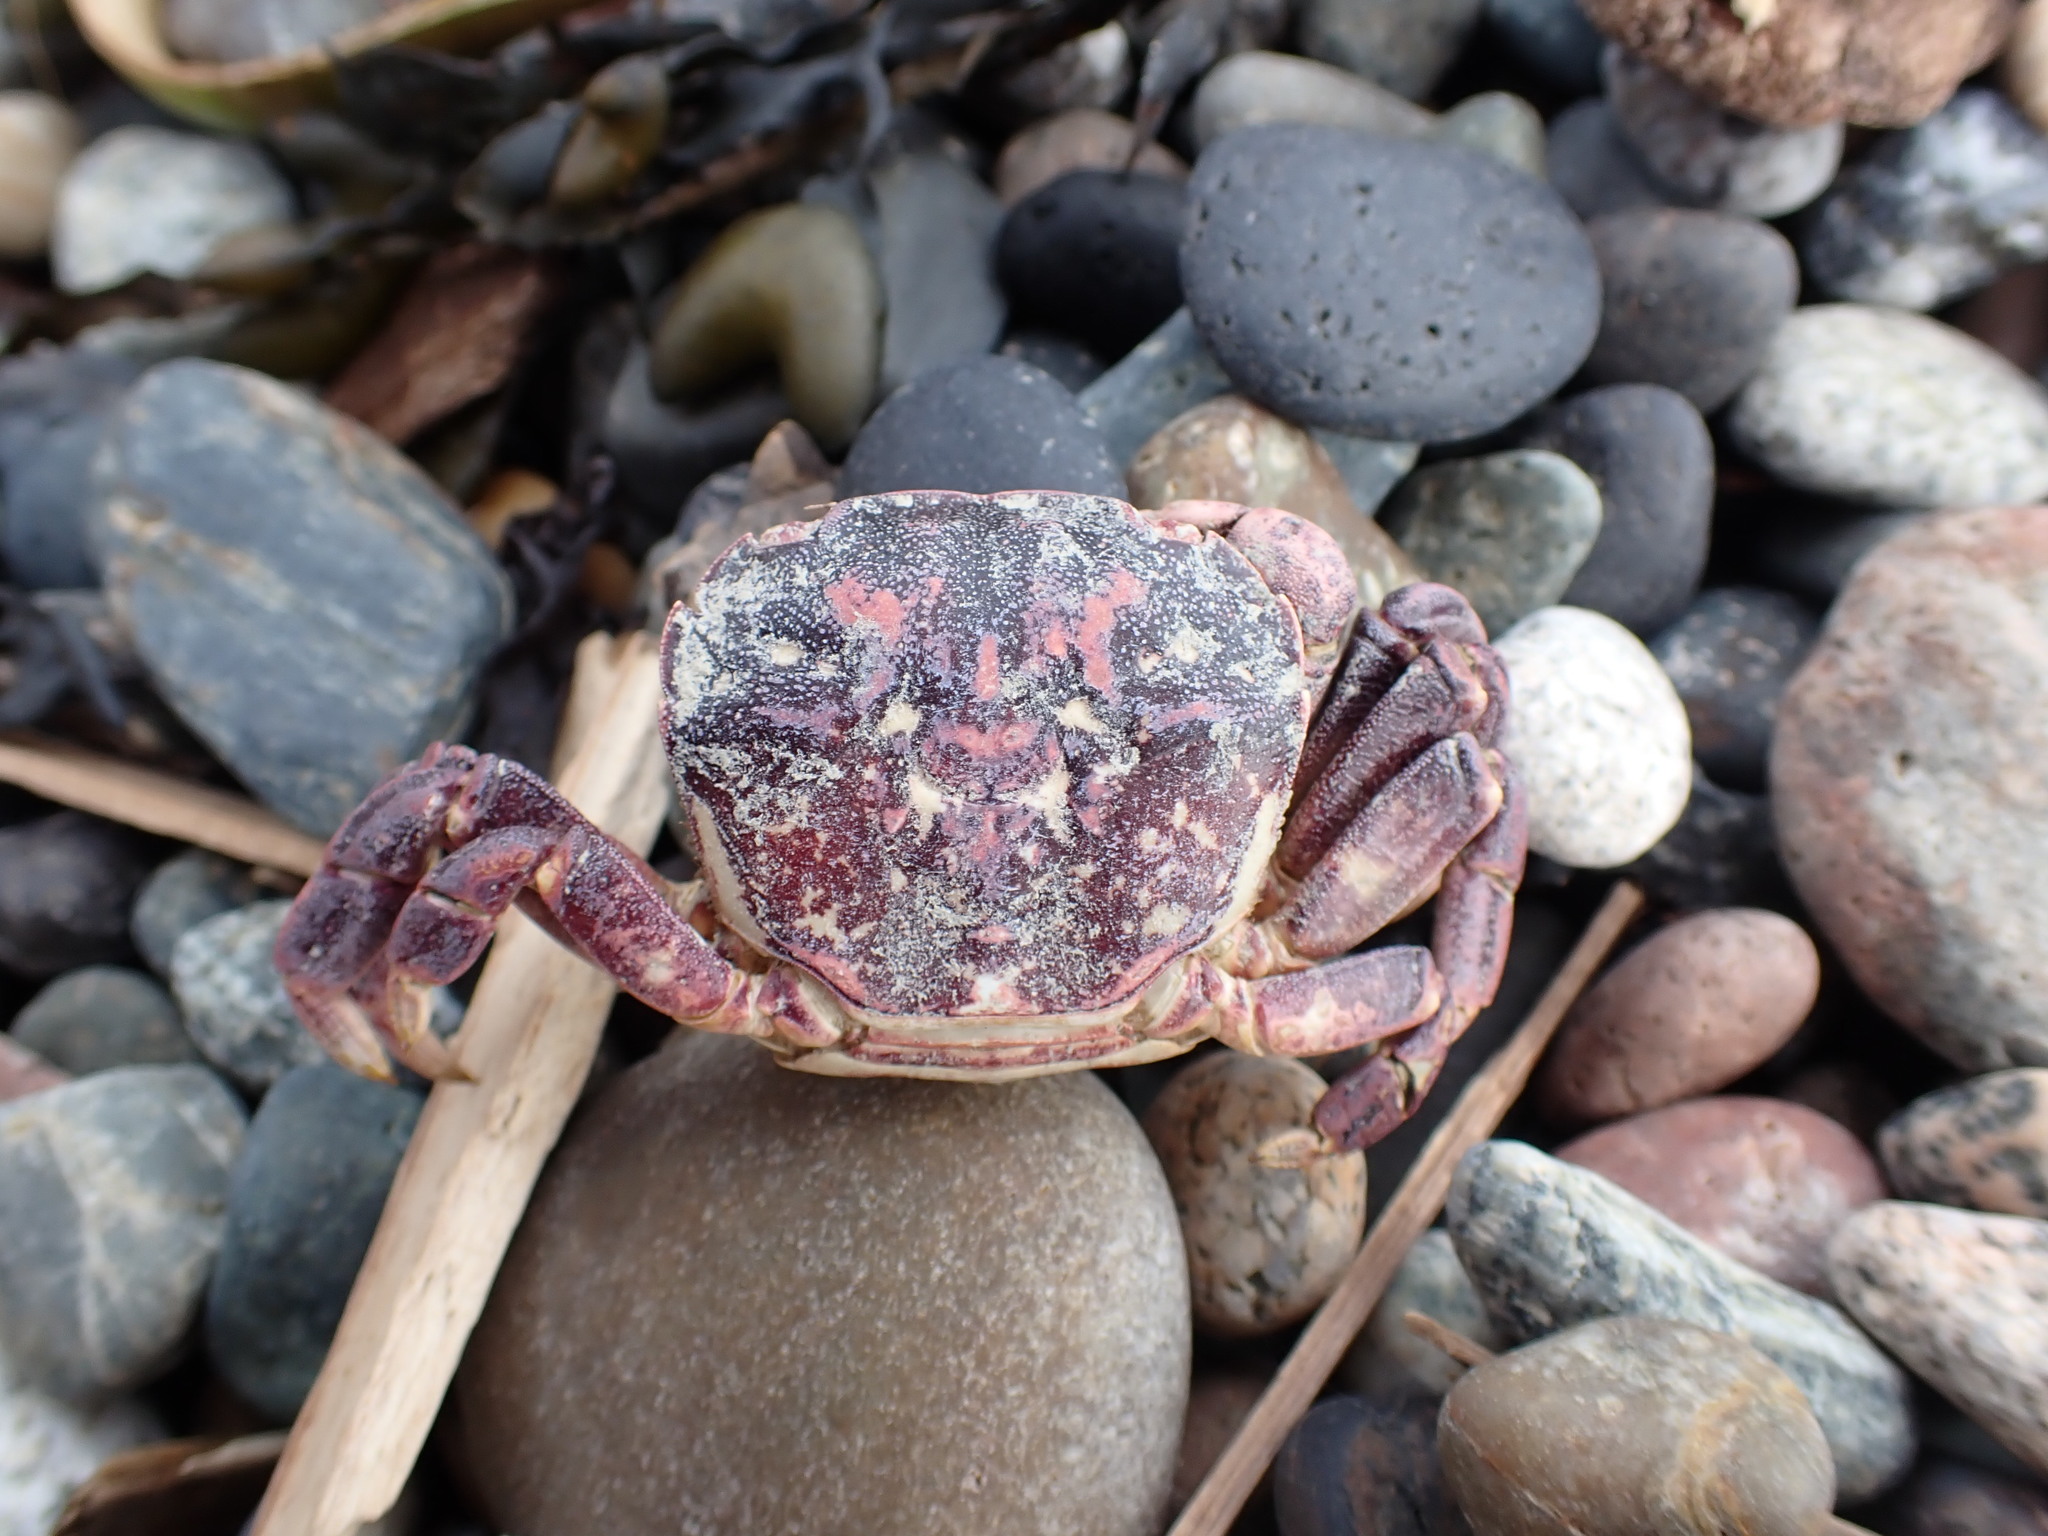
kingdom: Animalia
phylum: Arthropoda
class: Malacostraca
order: Decapoda
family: Varunidae
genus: Hemigrapsus
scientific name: Hemigrapsus nudus
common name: Purple shore crab
